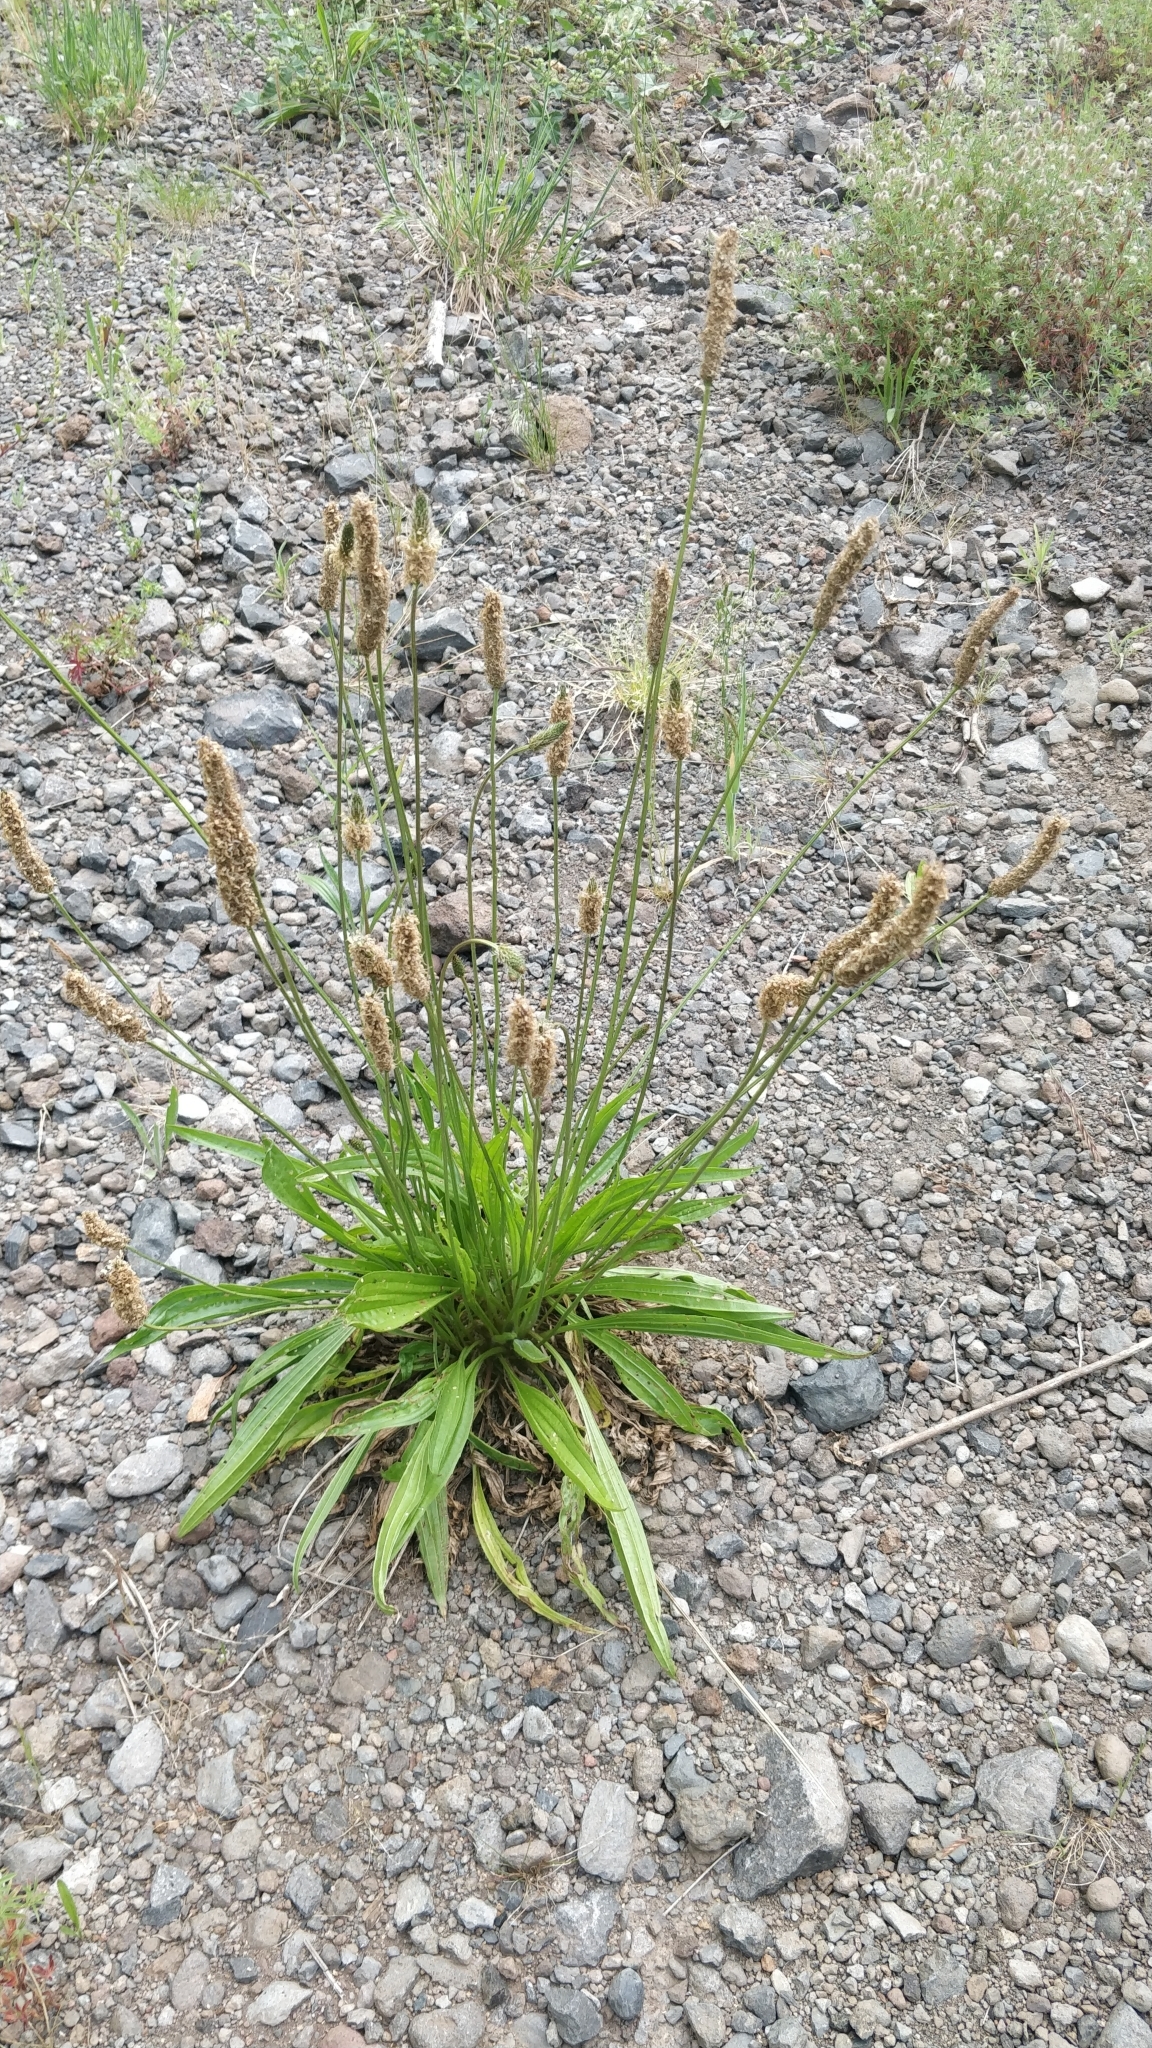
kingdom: Plantae
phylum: Tracheophyta
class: Magnoliopsida
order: Lamiales
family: Plantaginaceae
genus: Plantago
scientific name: Plantago lanceolata
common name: Ribwort plantain
